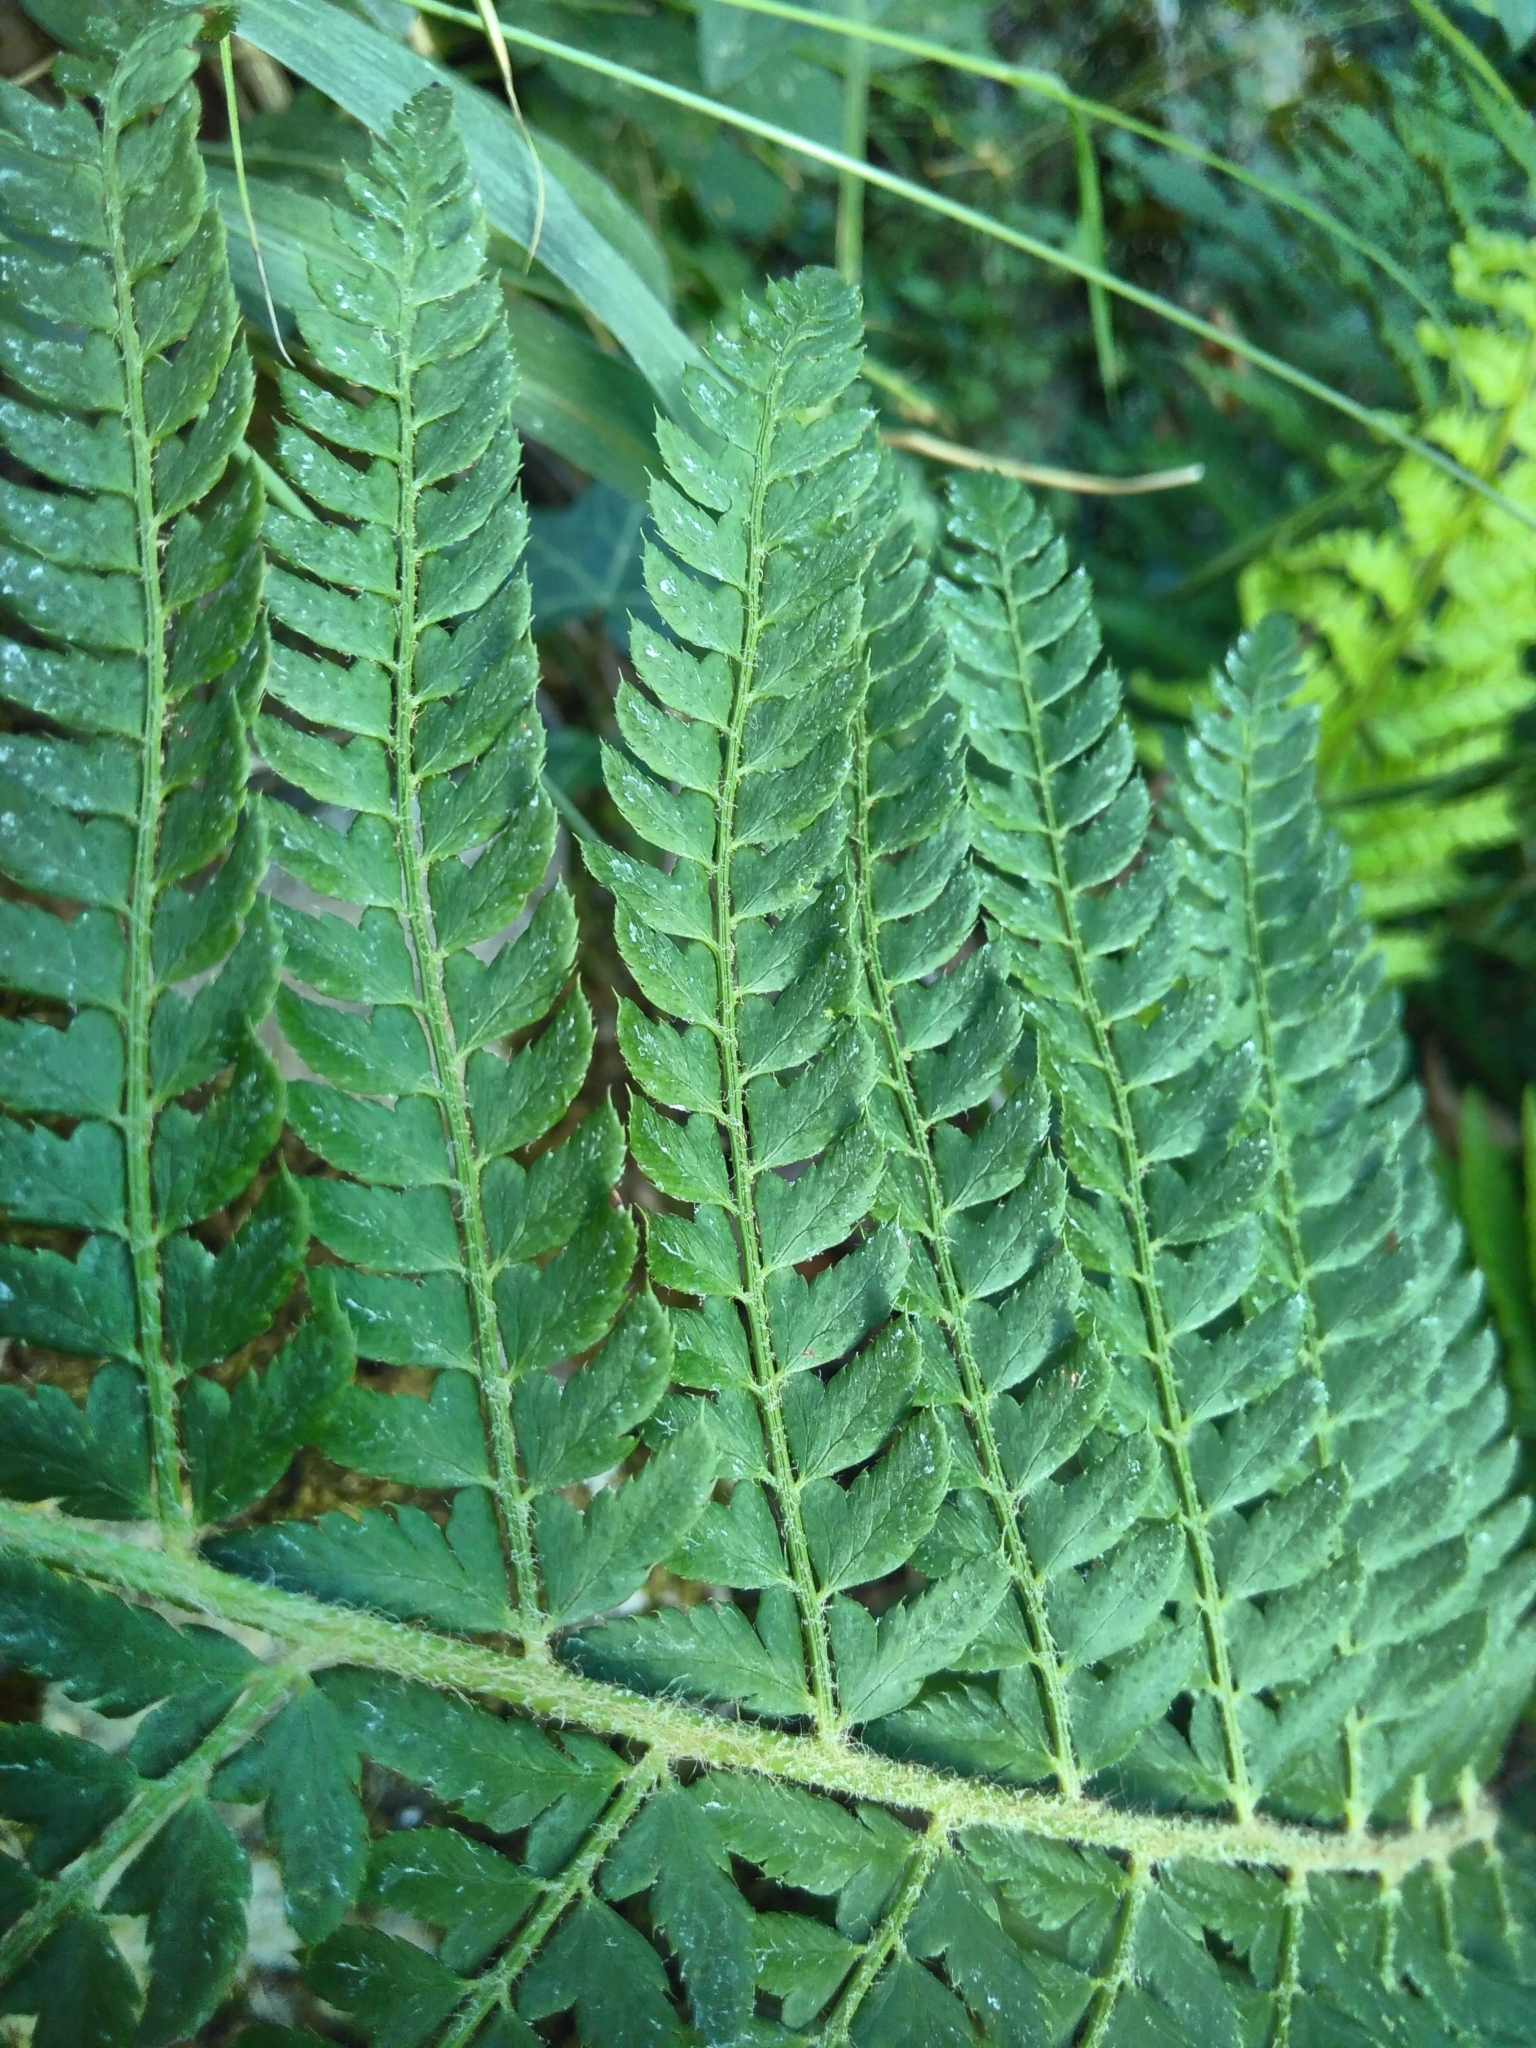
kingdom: Plantae
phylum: Tracheophyta
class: Polypodiopsida
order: Polypodiales
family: Dryopteridaceae
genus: Polystichum
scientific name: Polystichum setiferum
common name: Soft shield-fern
